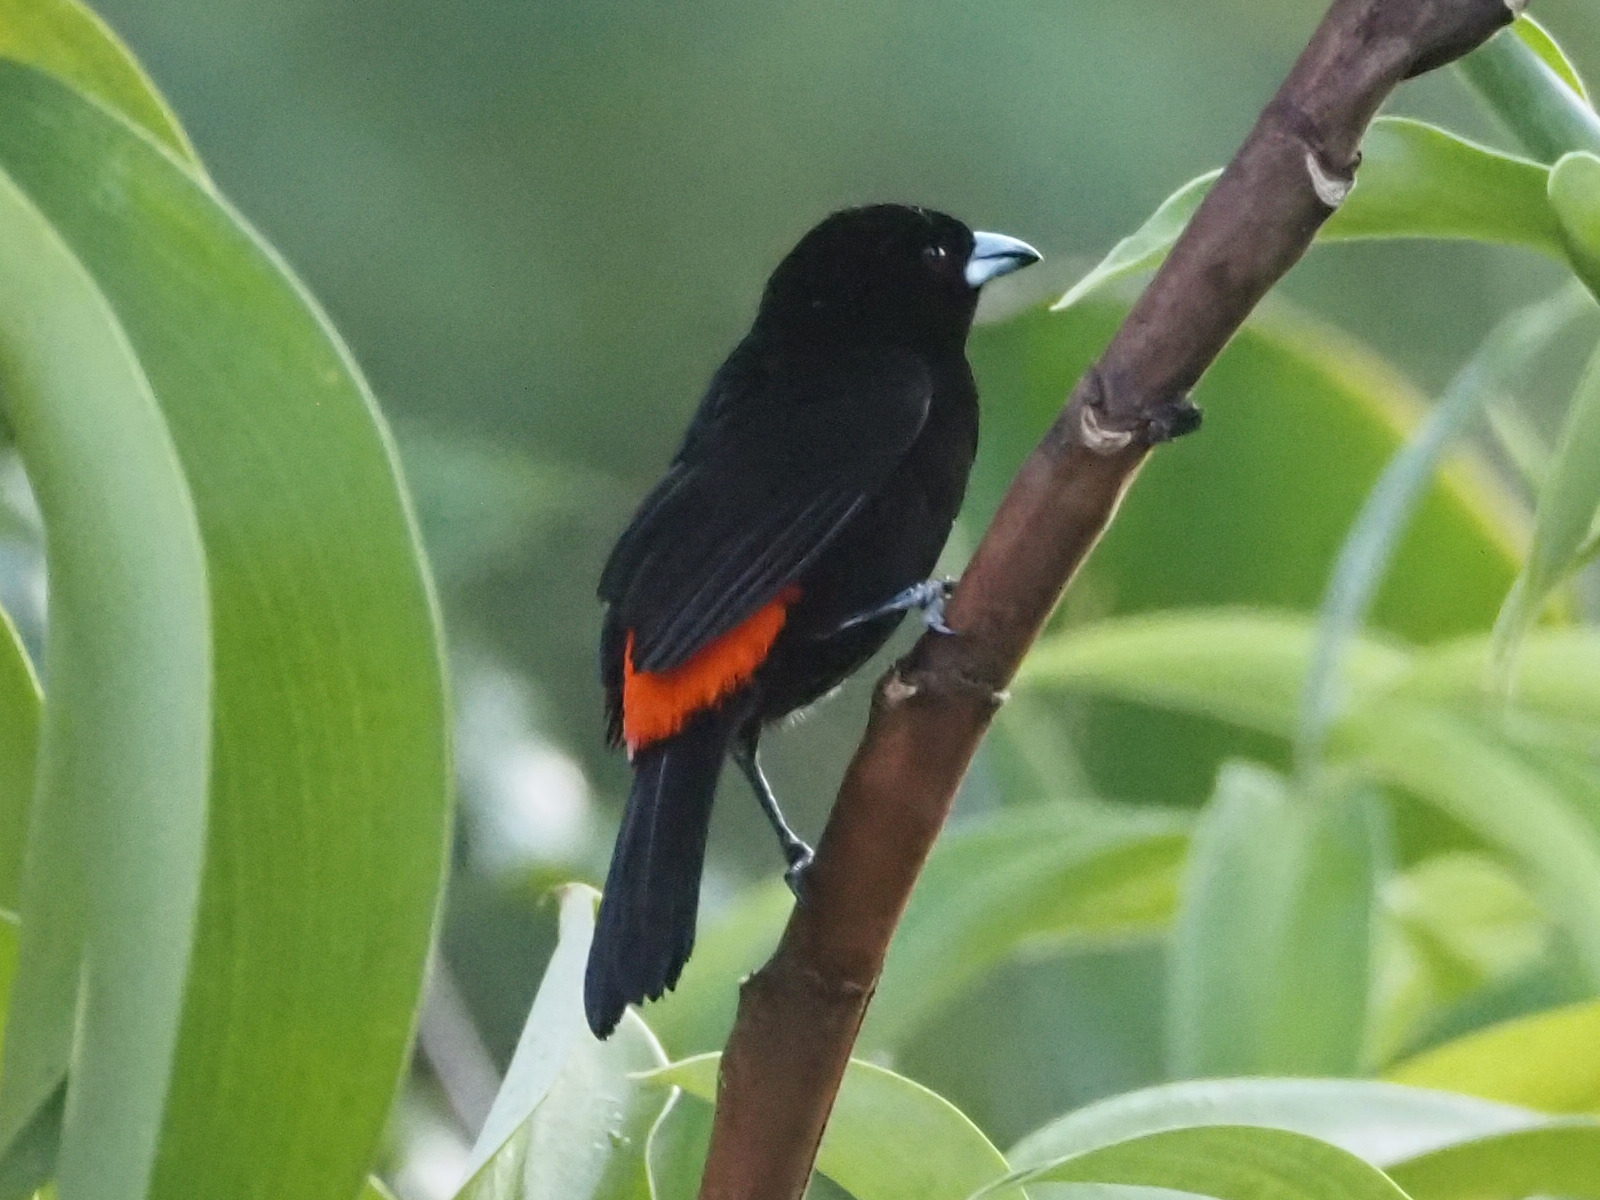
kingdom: Animalia
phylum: Chordata
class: Aves
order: Passeriformes
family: Thraupidae
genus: Ramphocelus
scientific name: Ramphocelus passerinii
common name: Passerini's tanager
